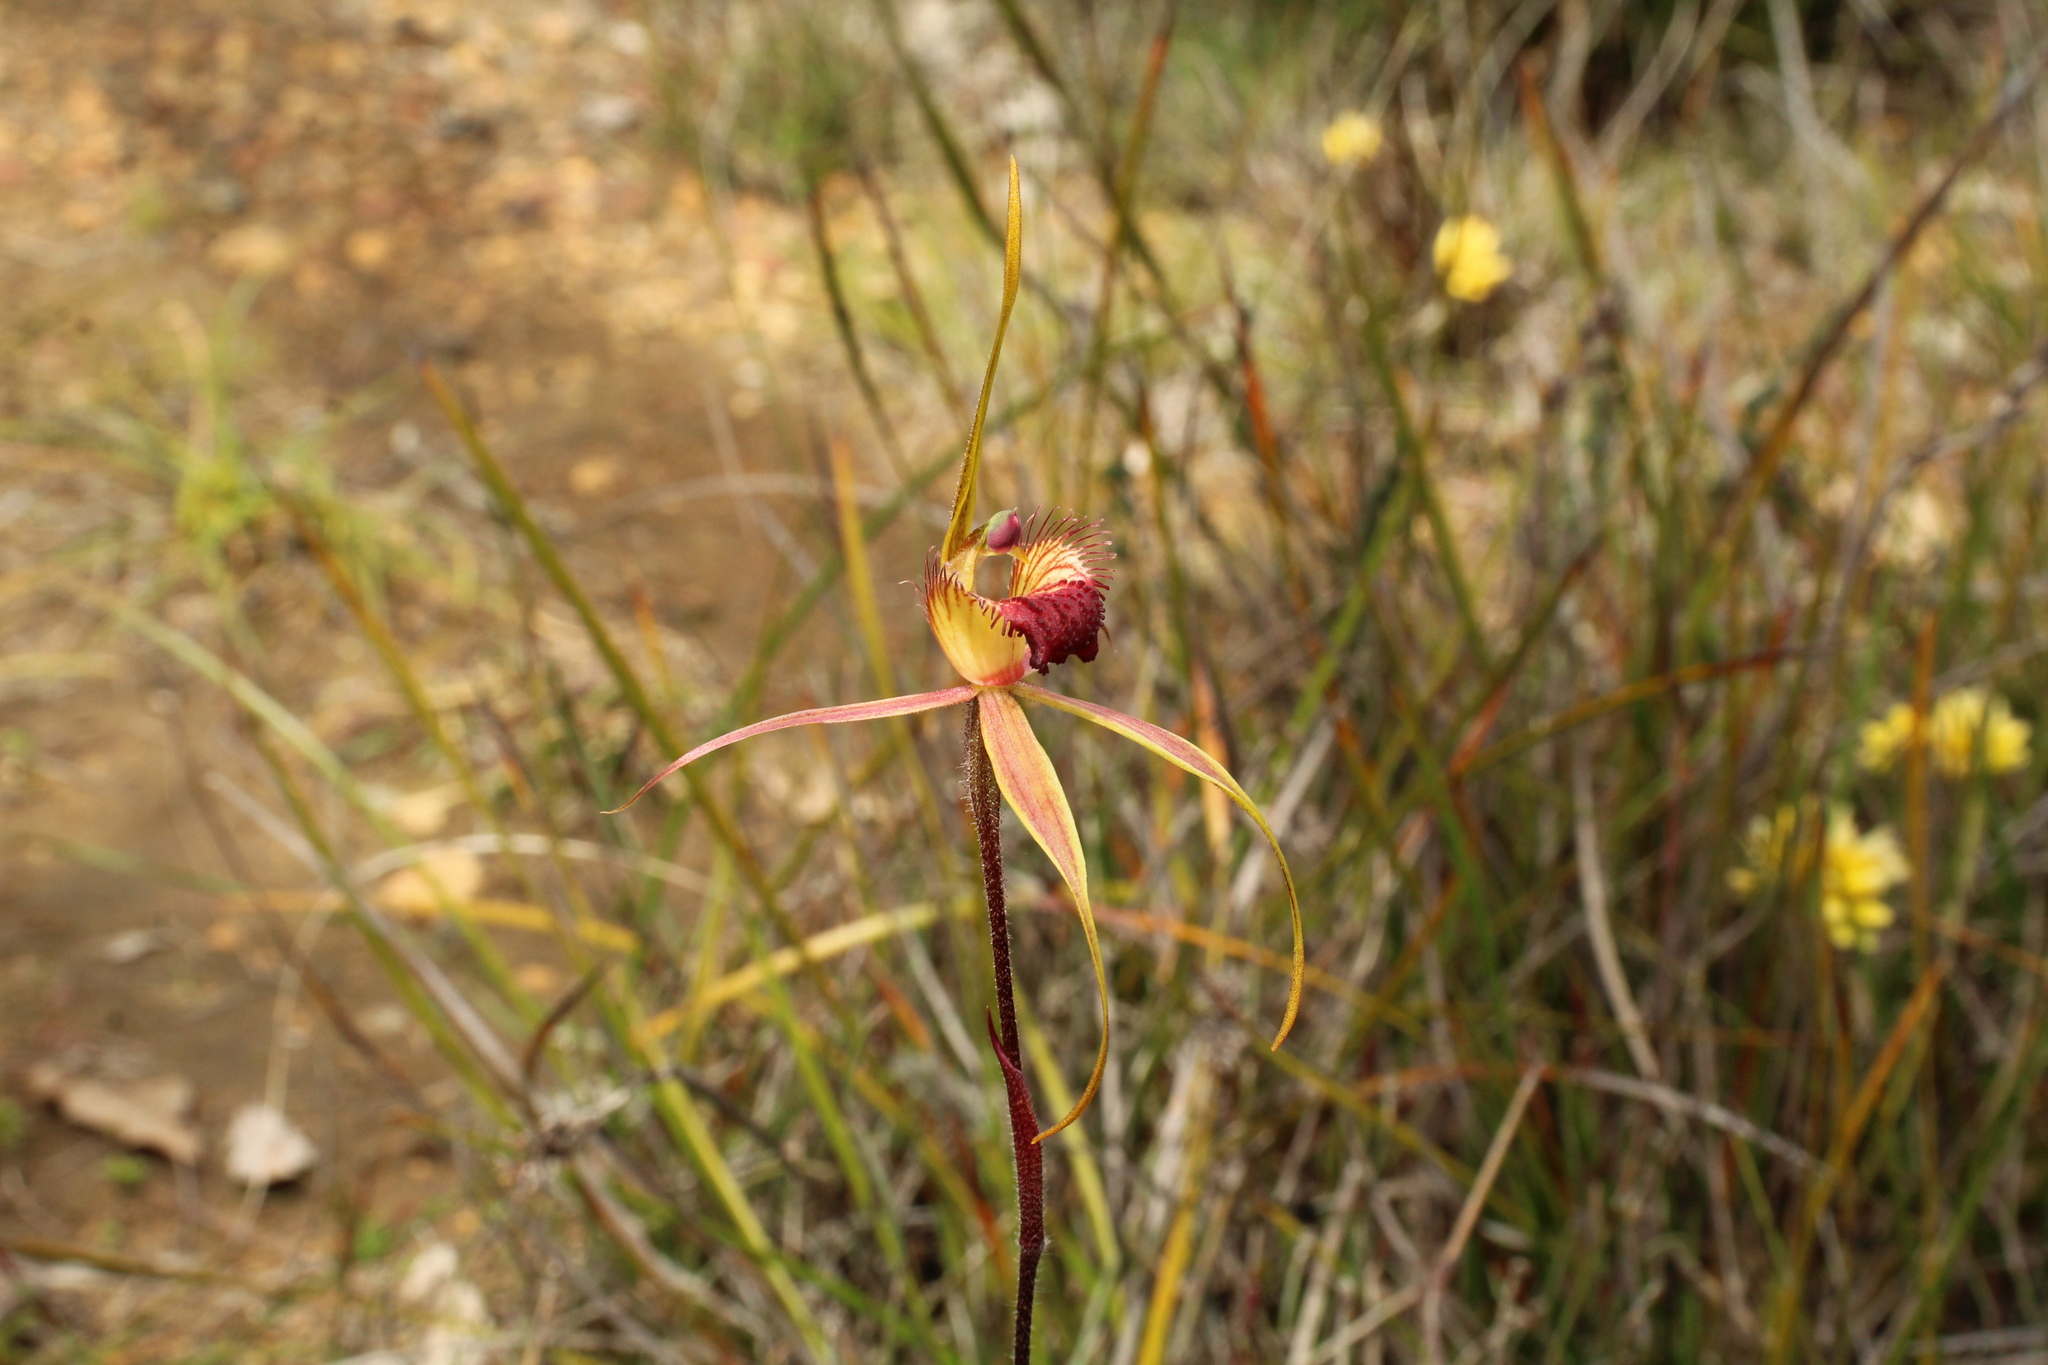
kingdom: Plantae
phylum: Tracheophyta
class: Liliopsida
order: Asparagales
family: Orchidaceae
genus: Caladenia
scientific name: Caladenia pectinata
